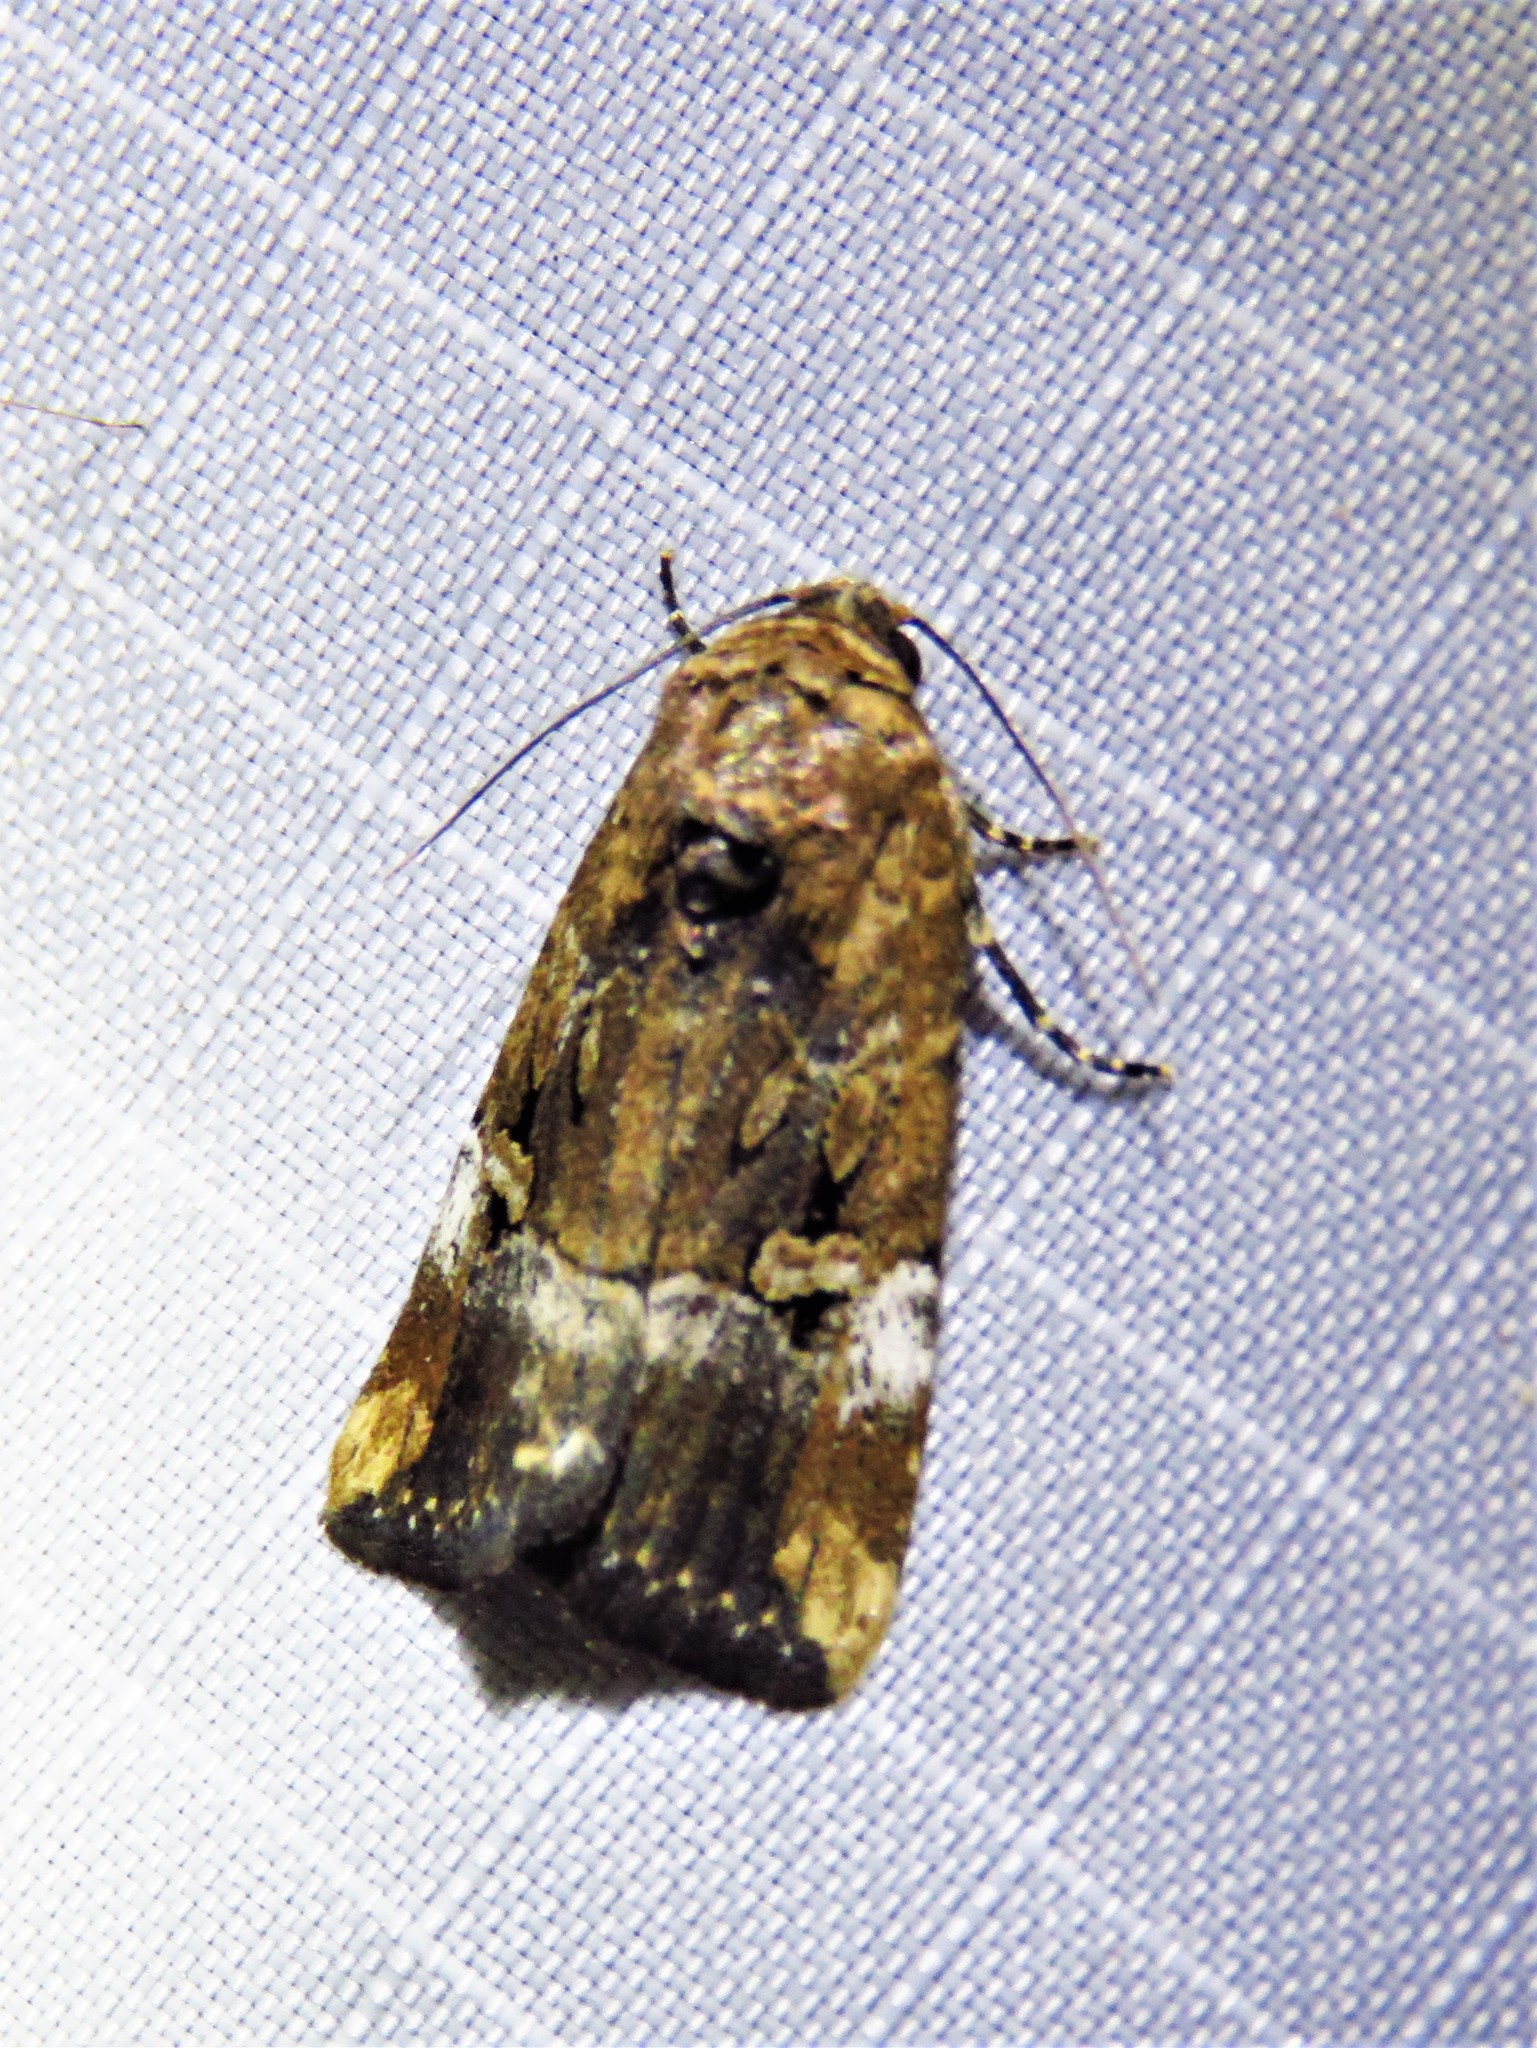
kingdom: Animalia
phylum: Arthropoda
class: Insecta
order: Lepidoptera
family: Noctuidae
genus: Elaphria
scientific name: Elaphria chalcedonia
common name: Chalcedony midget
